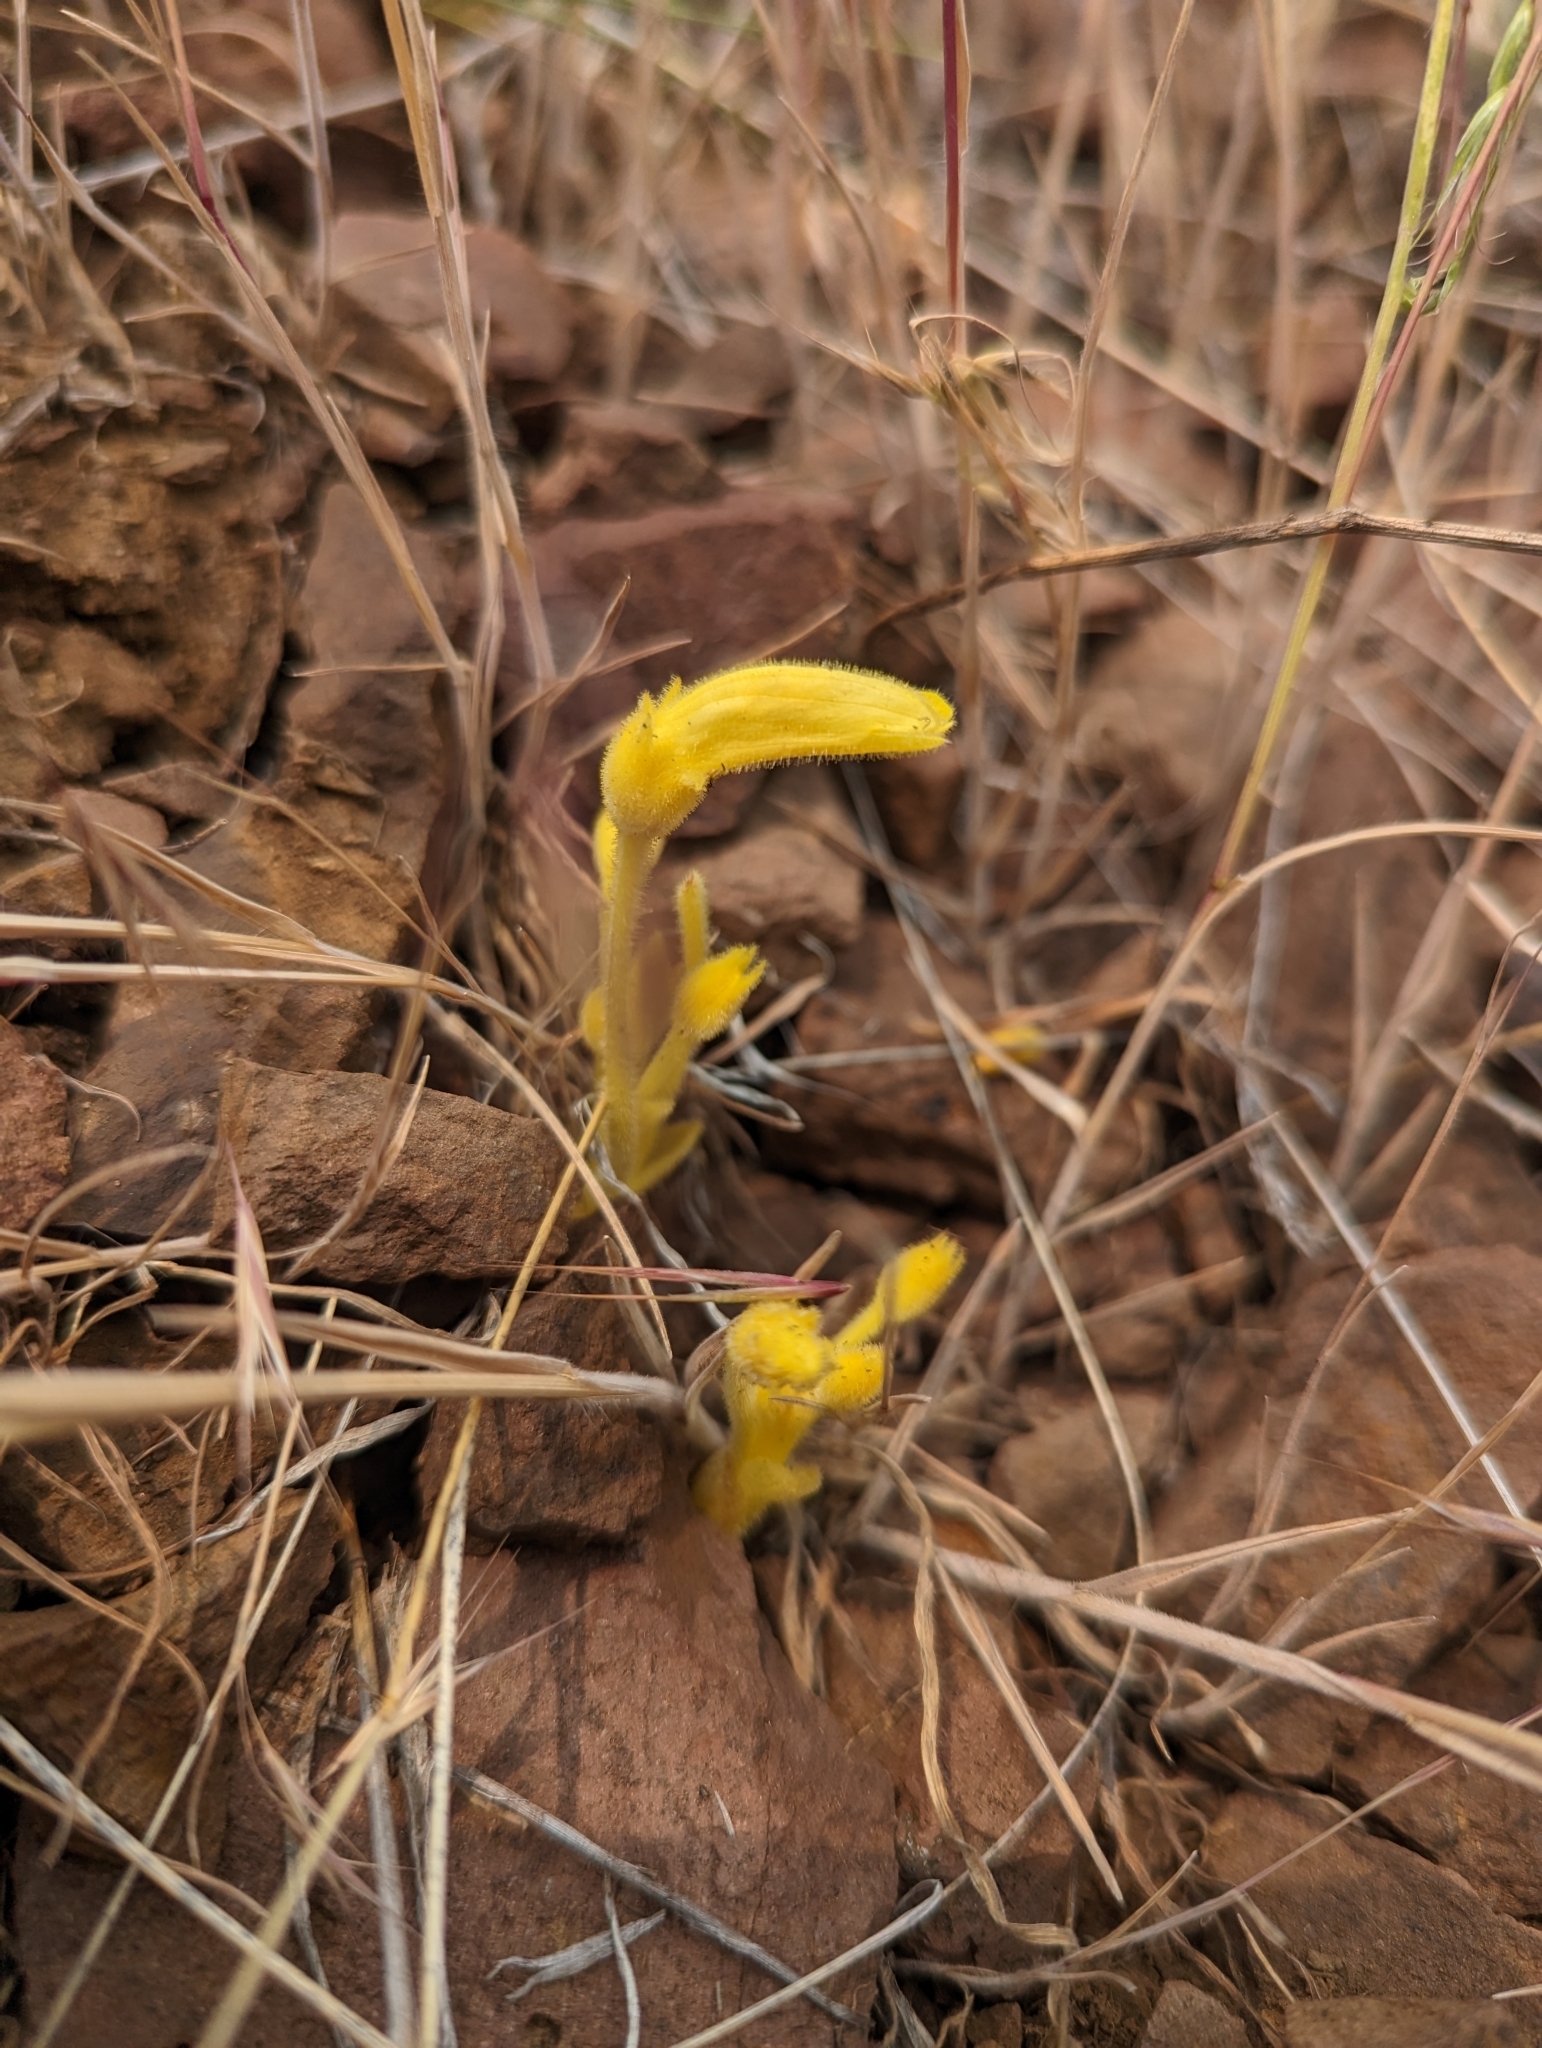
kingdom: Plantae
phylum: Tracheophyta
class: Magnoliopsida
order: Lamiales
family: Orobanchaceae
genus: Aphyllon
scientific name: Aphyllon franciscanum
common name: San francisco broomrape
